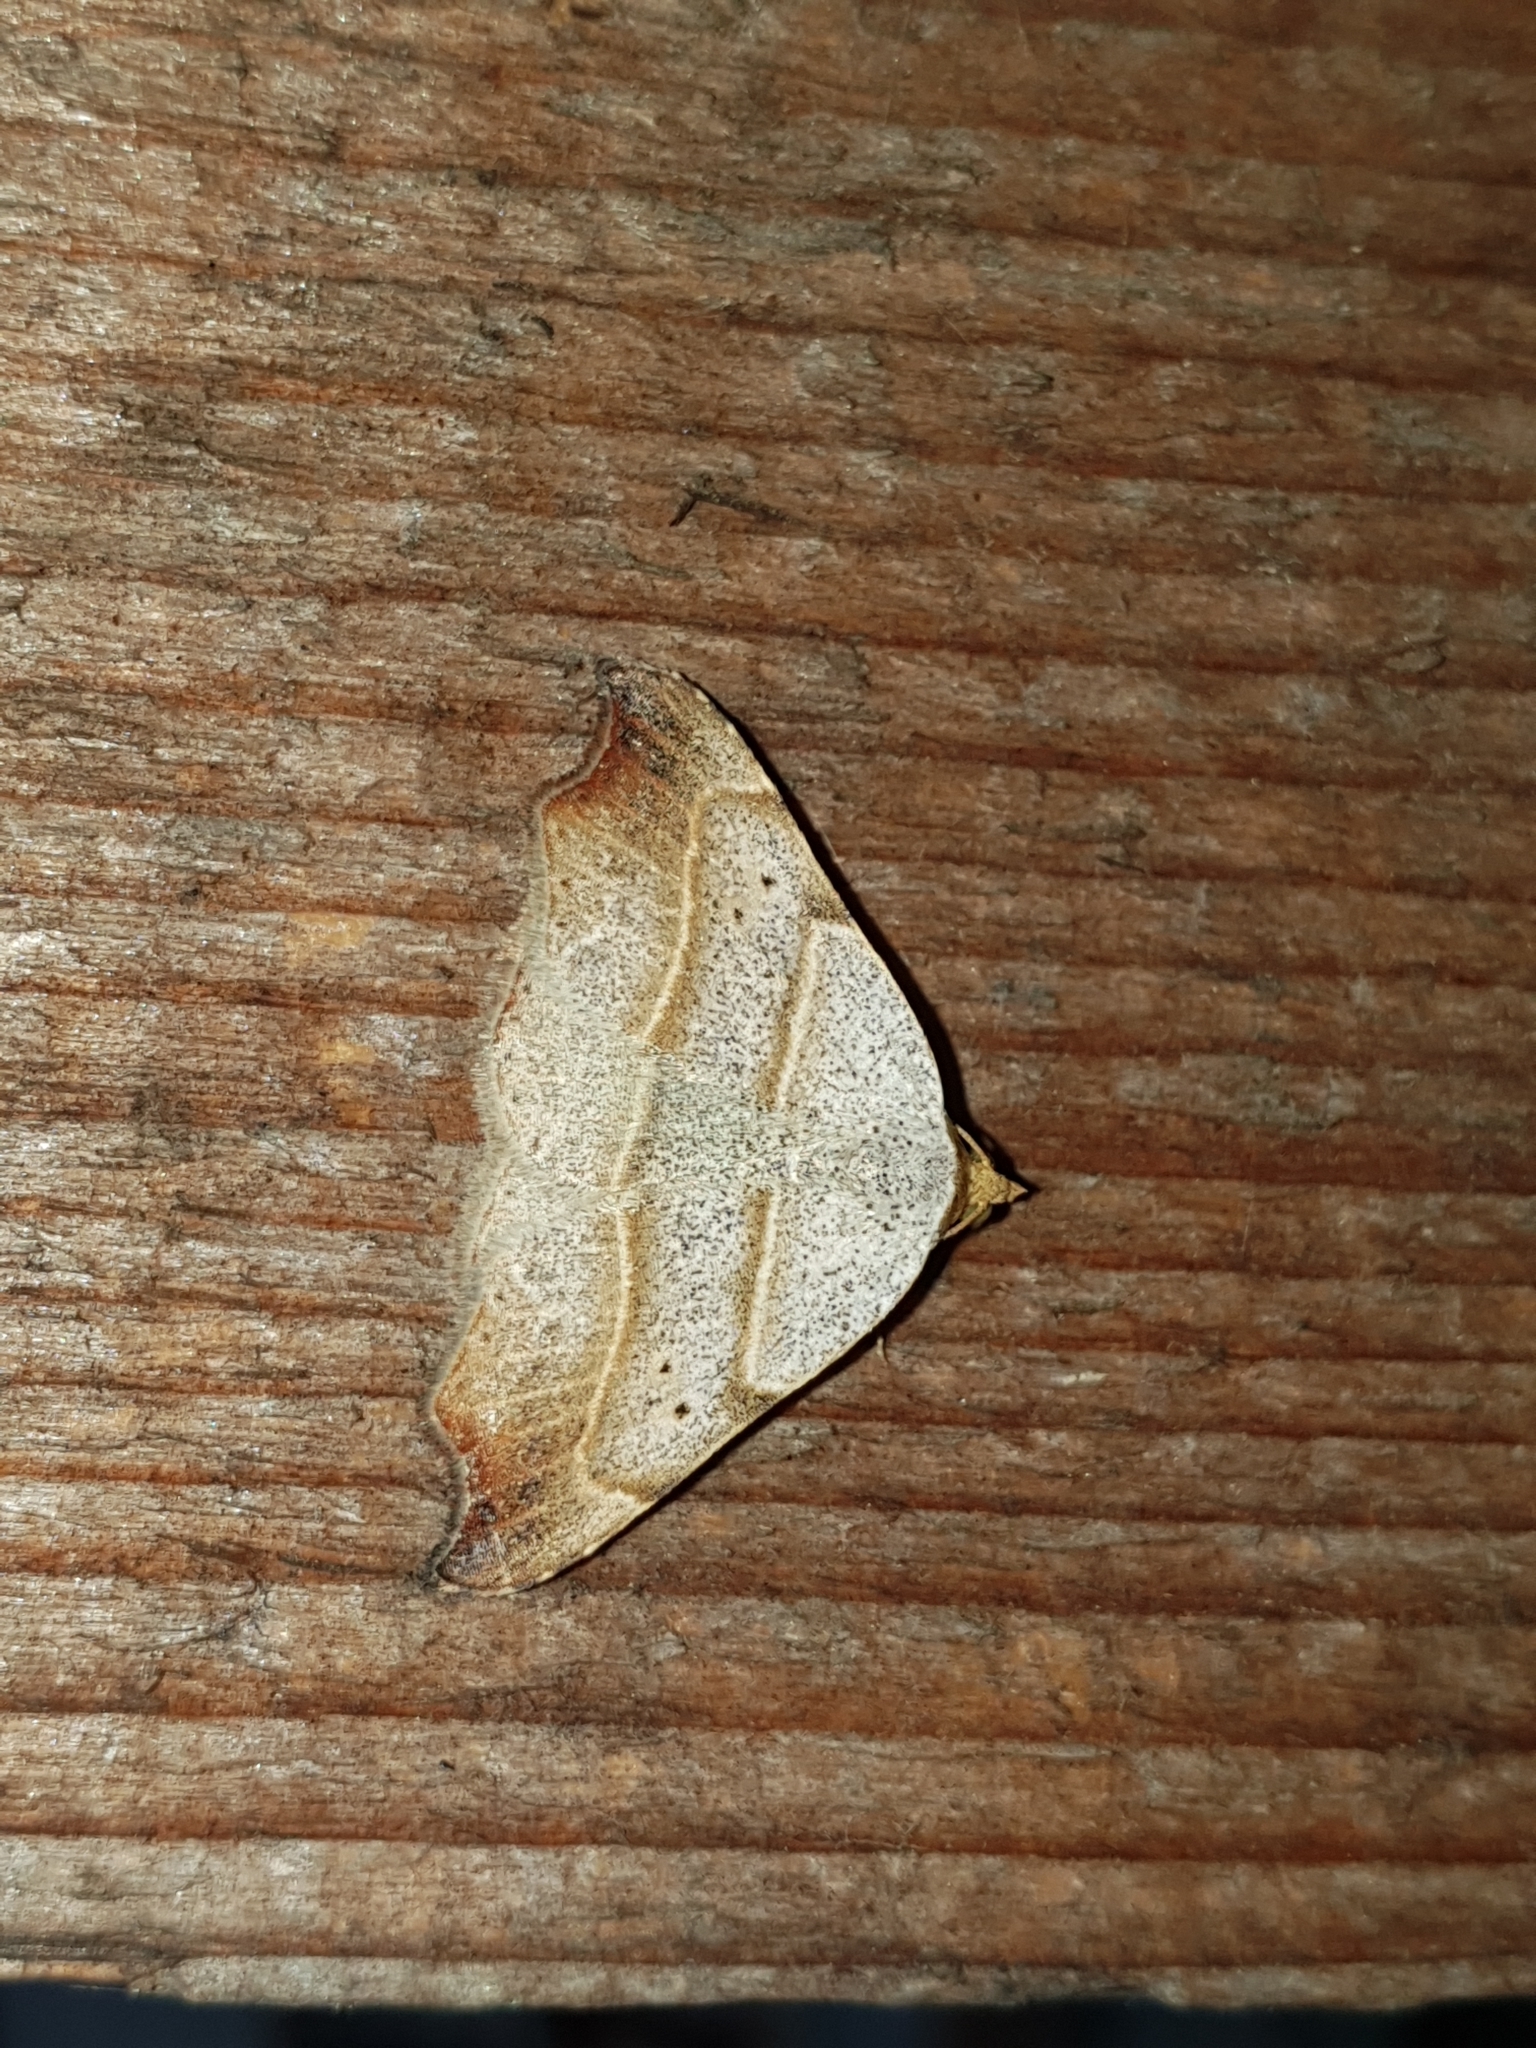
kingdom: Animalia
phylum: Arthropoda
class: Insecta
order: Lepidoptera
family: Erebidae
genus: Laspeyria
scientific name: Laspeyria flexula
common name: Beautiful hook-tip
